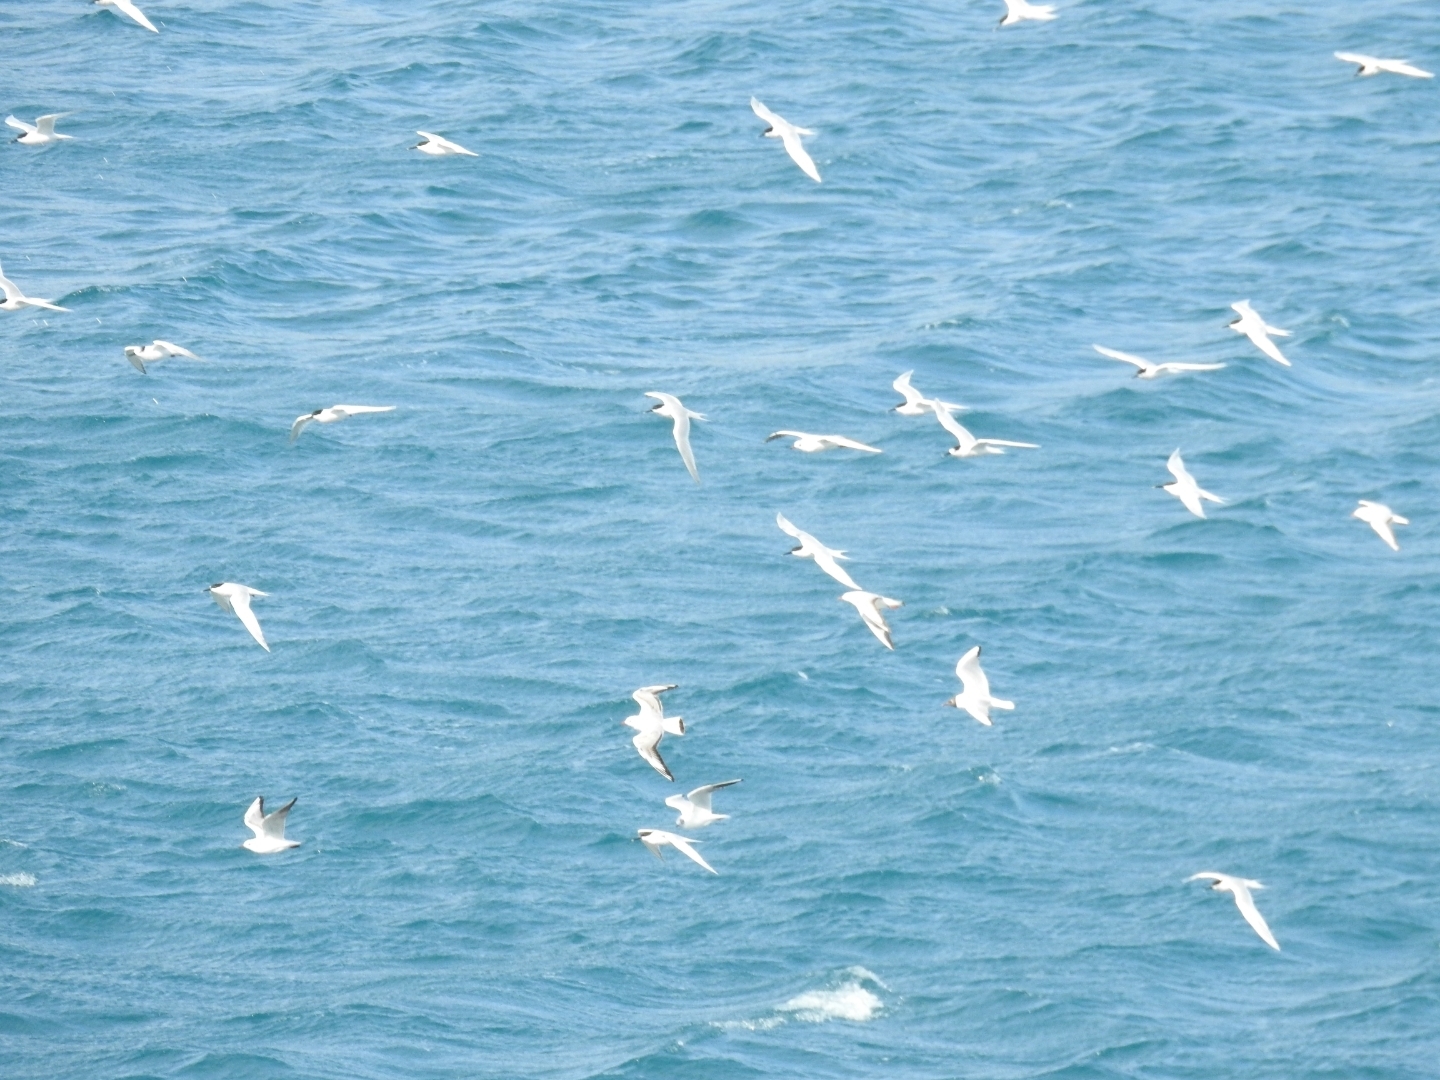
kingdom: Animalia
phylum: Chordata
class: Aves
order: Charadriiformes
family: Laridae
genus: Thalasseus
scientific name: Thalasseus sandvicensis
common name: Sandwich tern
